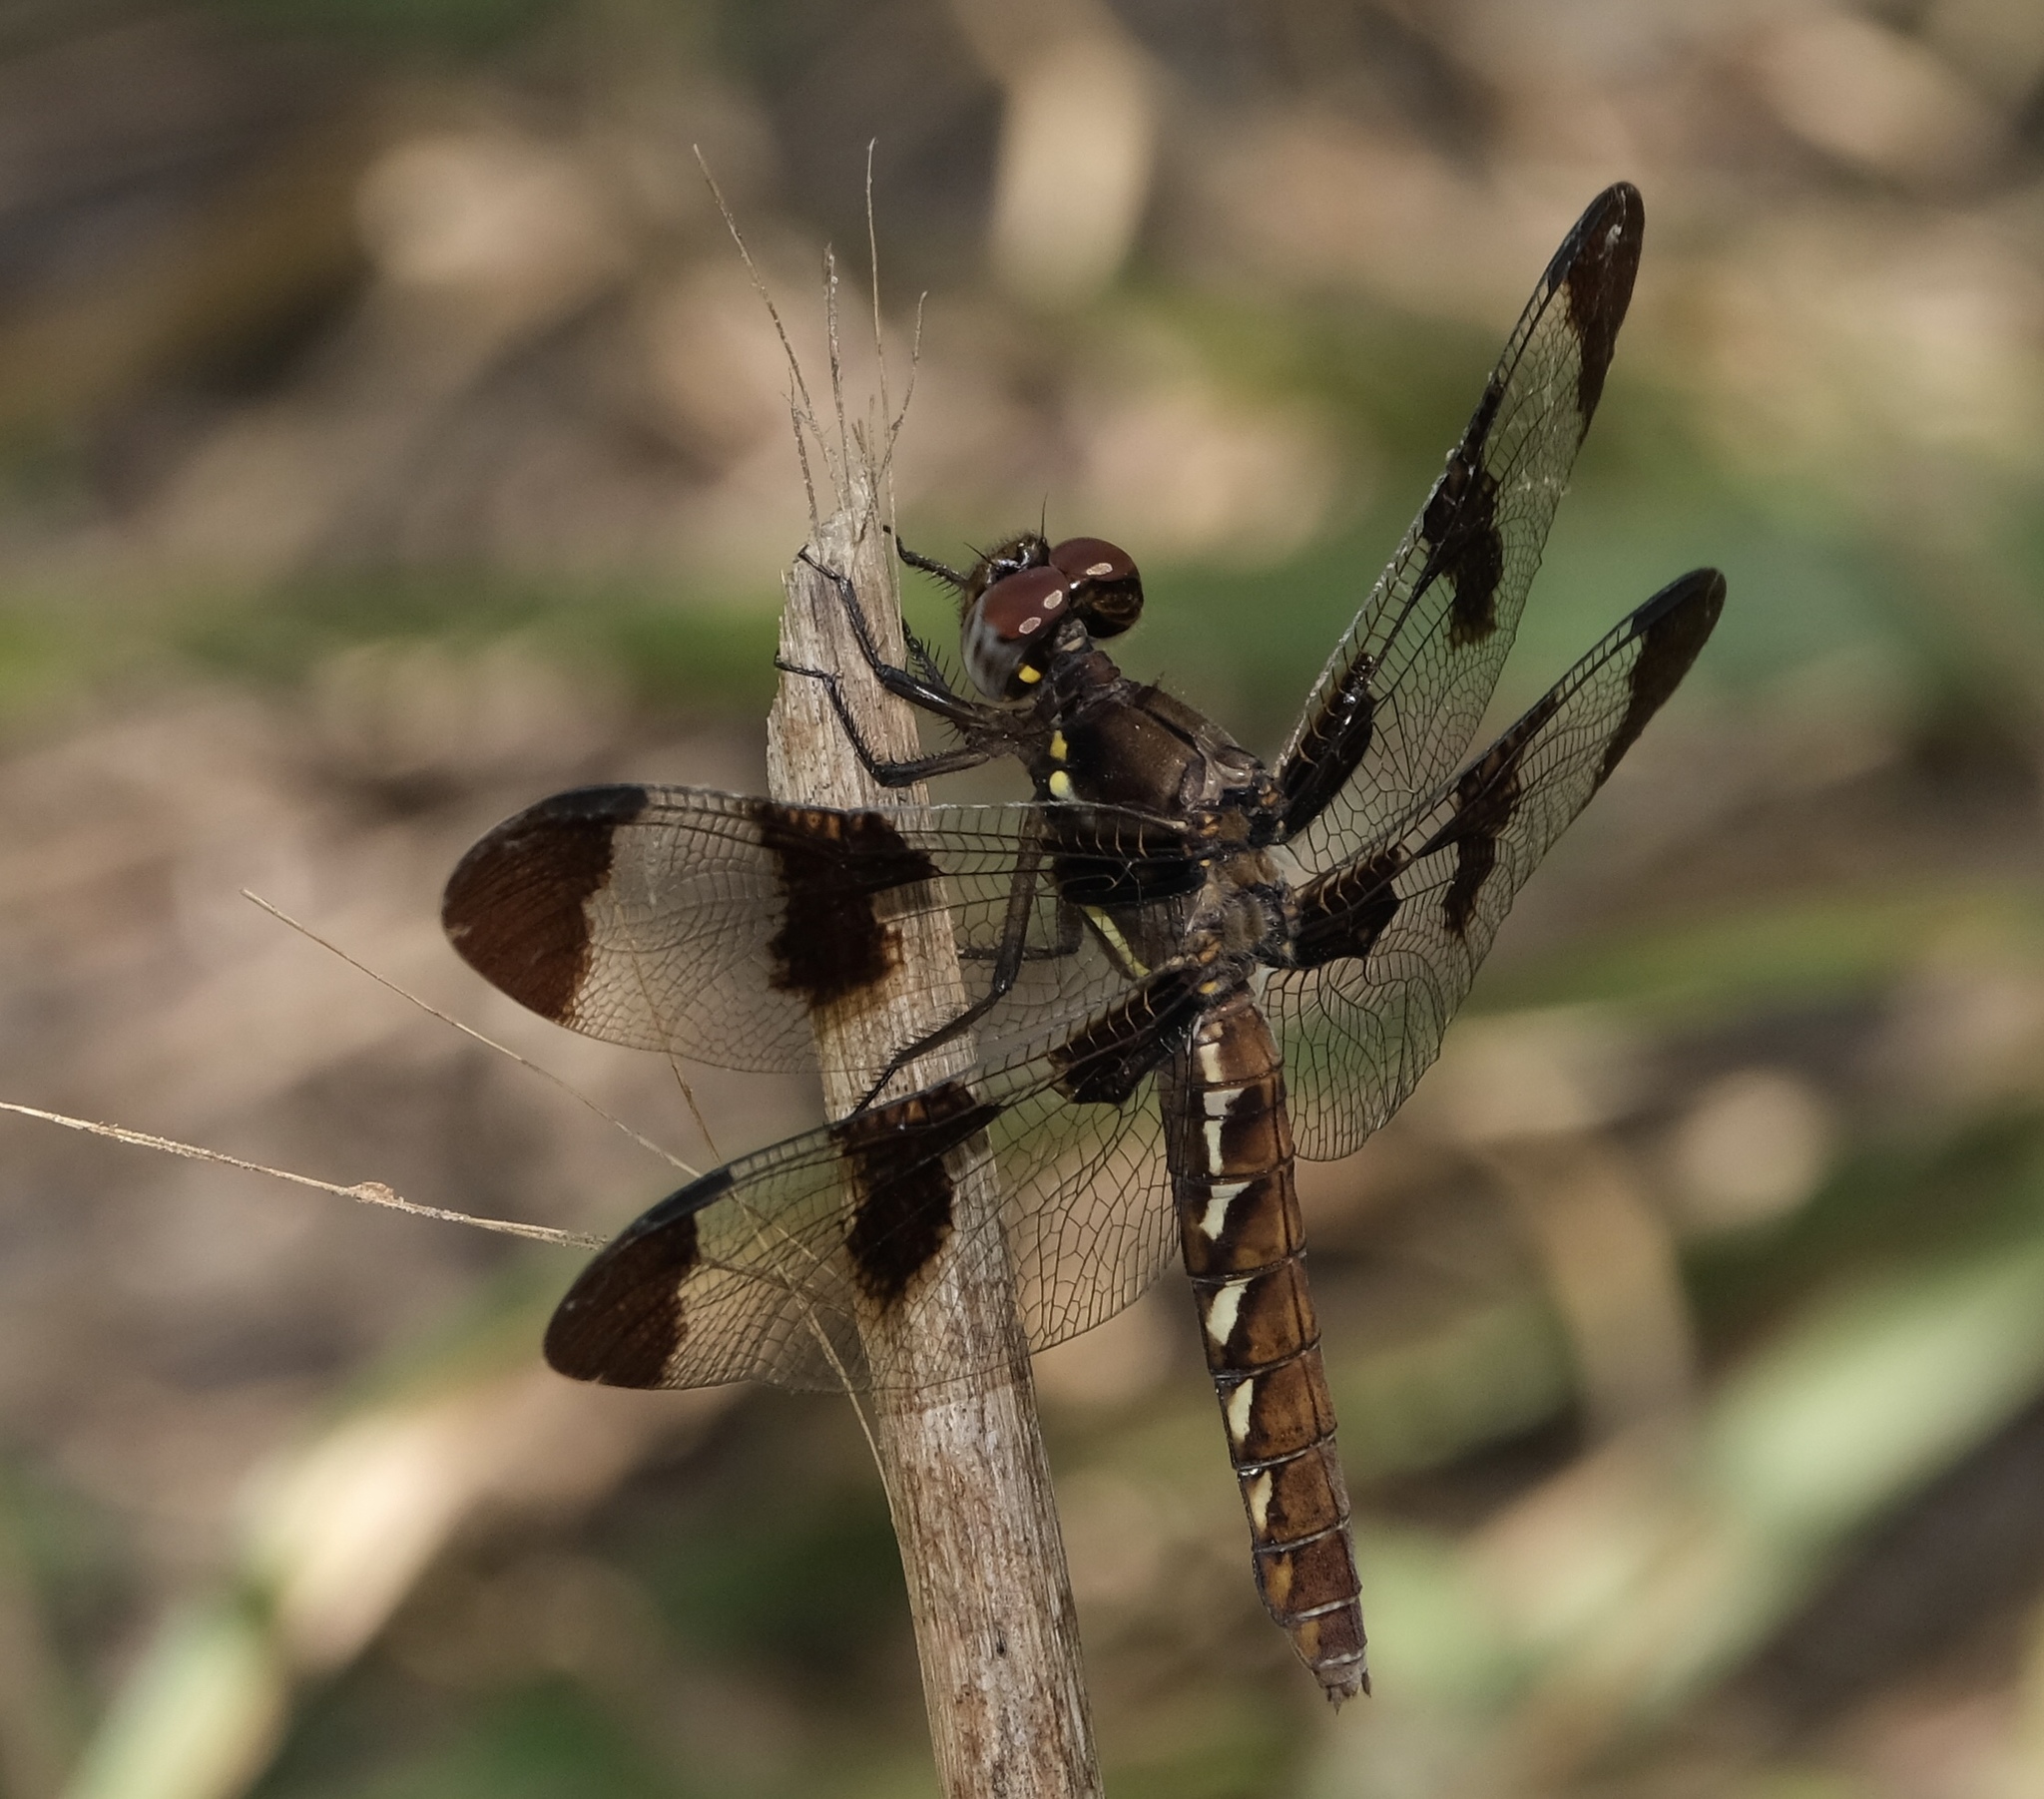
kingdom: Animalia
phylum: Arthropoda
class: Insecta
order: Odonata
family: Libellulidae
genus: Plathemis
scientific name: Plathemis lydia
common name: Common whitetail
